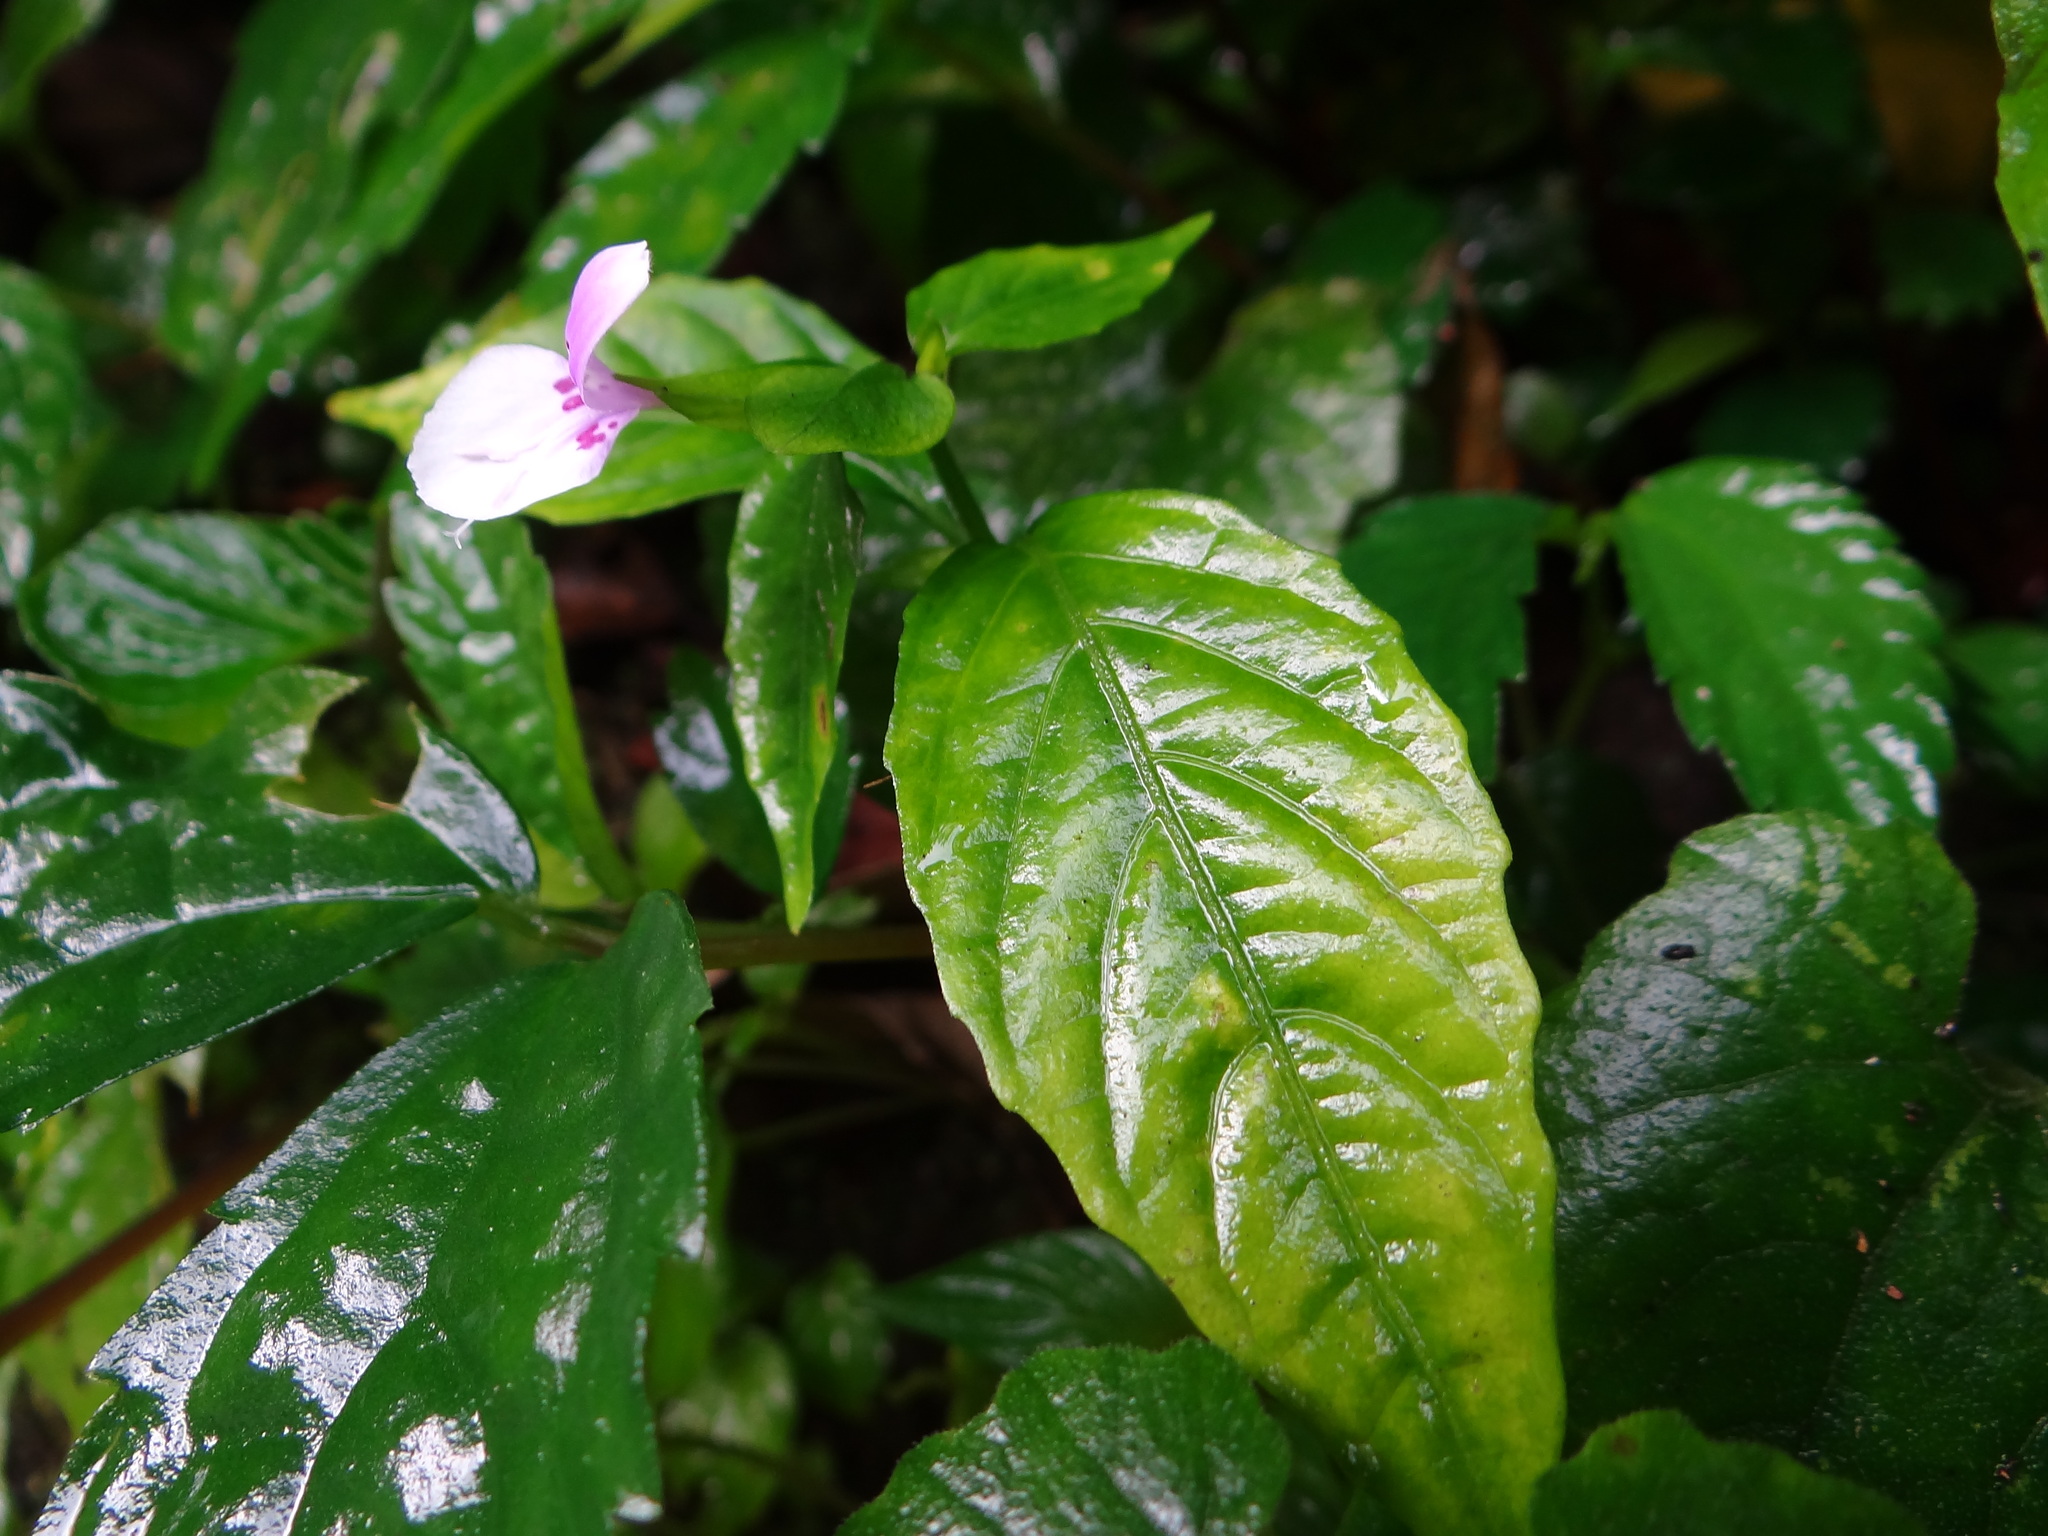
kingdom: Plantae
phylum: Tracheophyta
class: Magnoliopsida
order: Lamiales
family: Acanthaceae
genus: Dicliptera
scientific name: Dicliptera japonica
